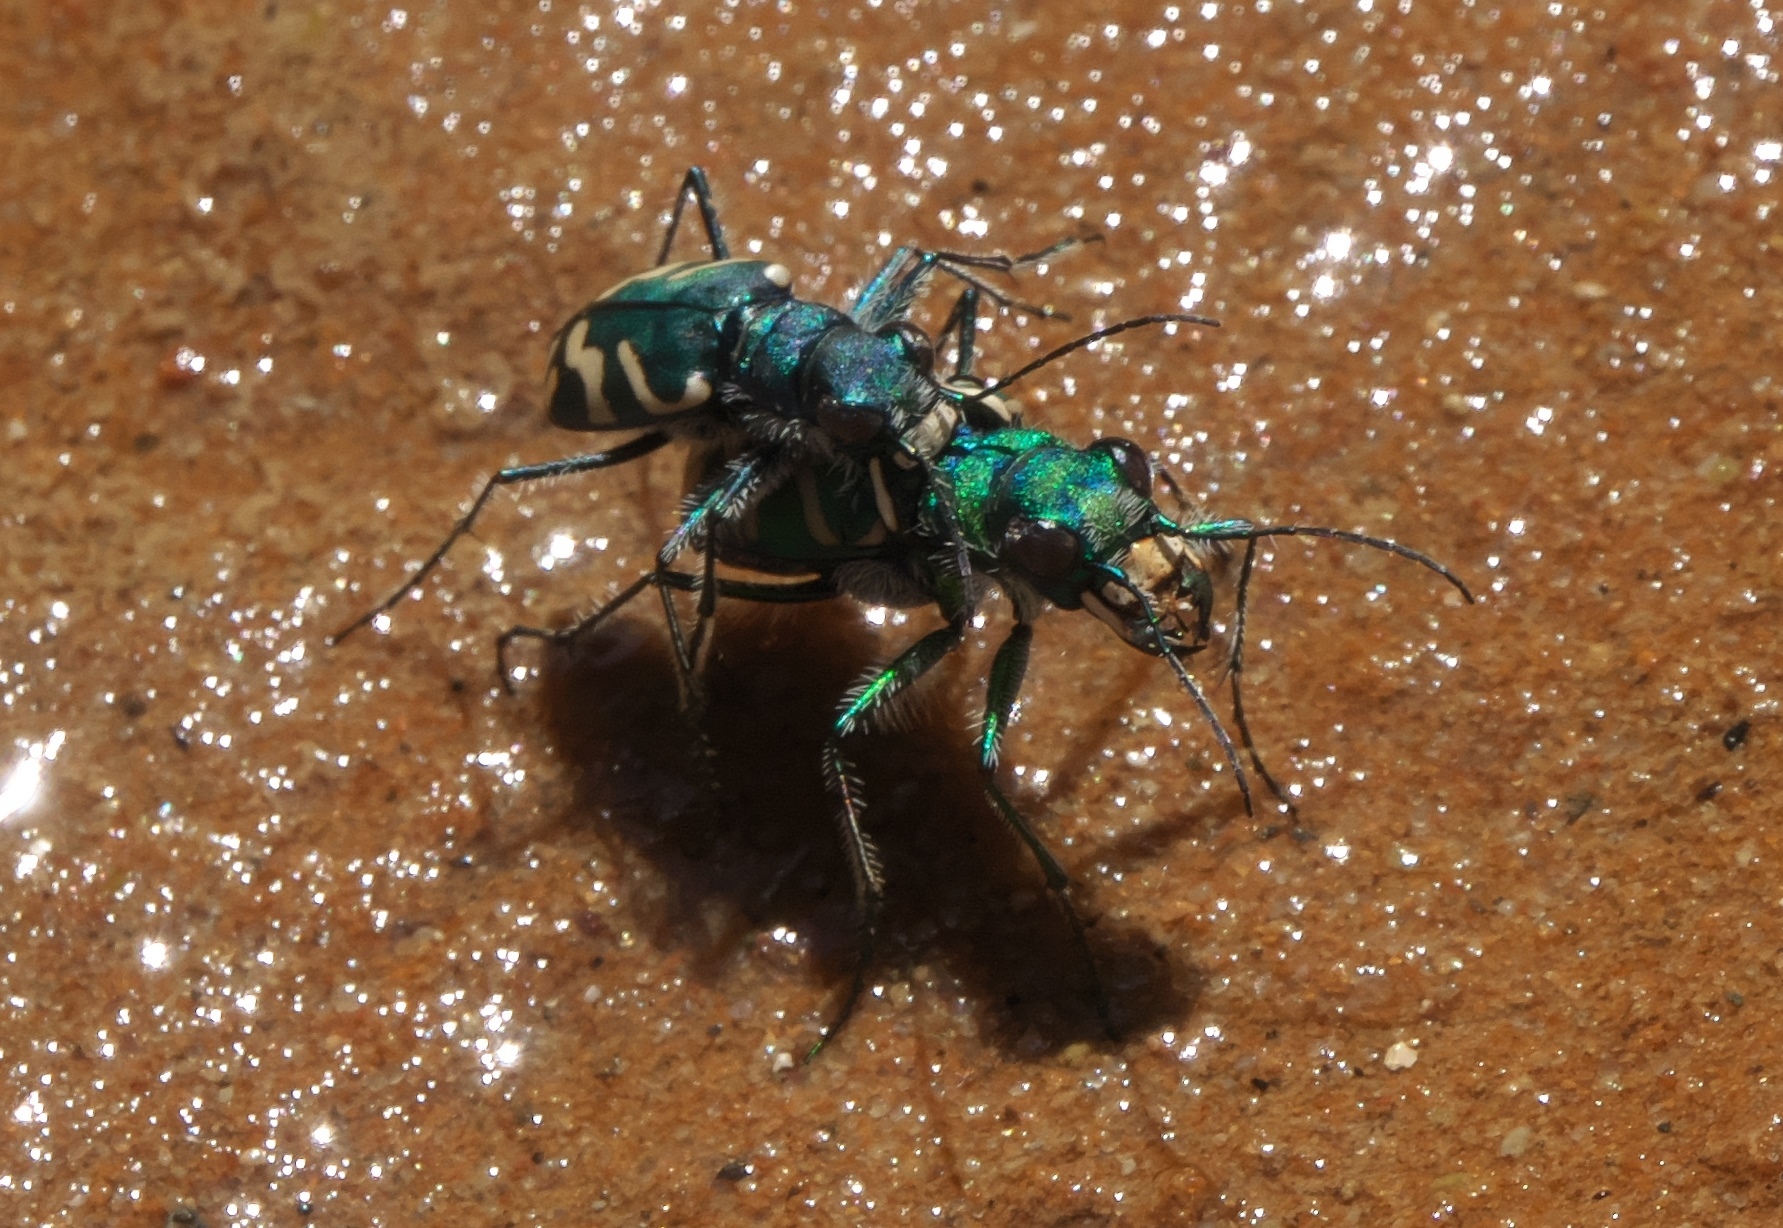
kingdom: Animalia
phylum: Arthropoda
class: Insecta
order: Coleoptera
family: Carabidae
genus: Cicindela
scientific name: Cicindela tranquebarica
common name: Oblique-lined tiger beetle
